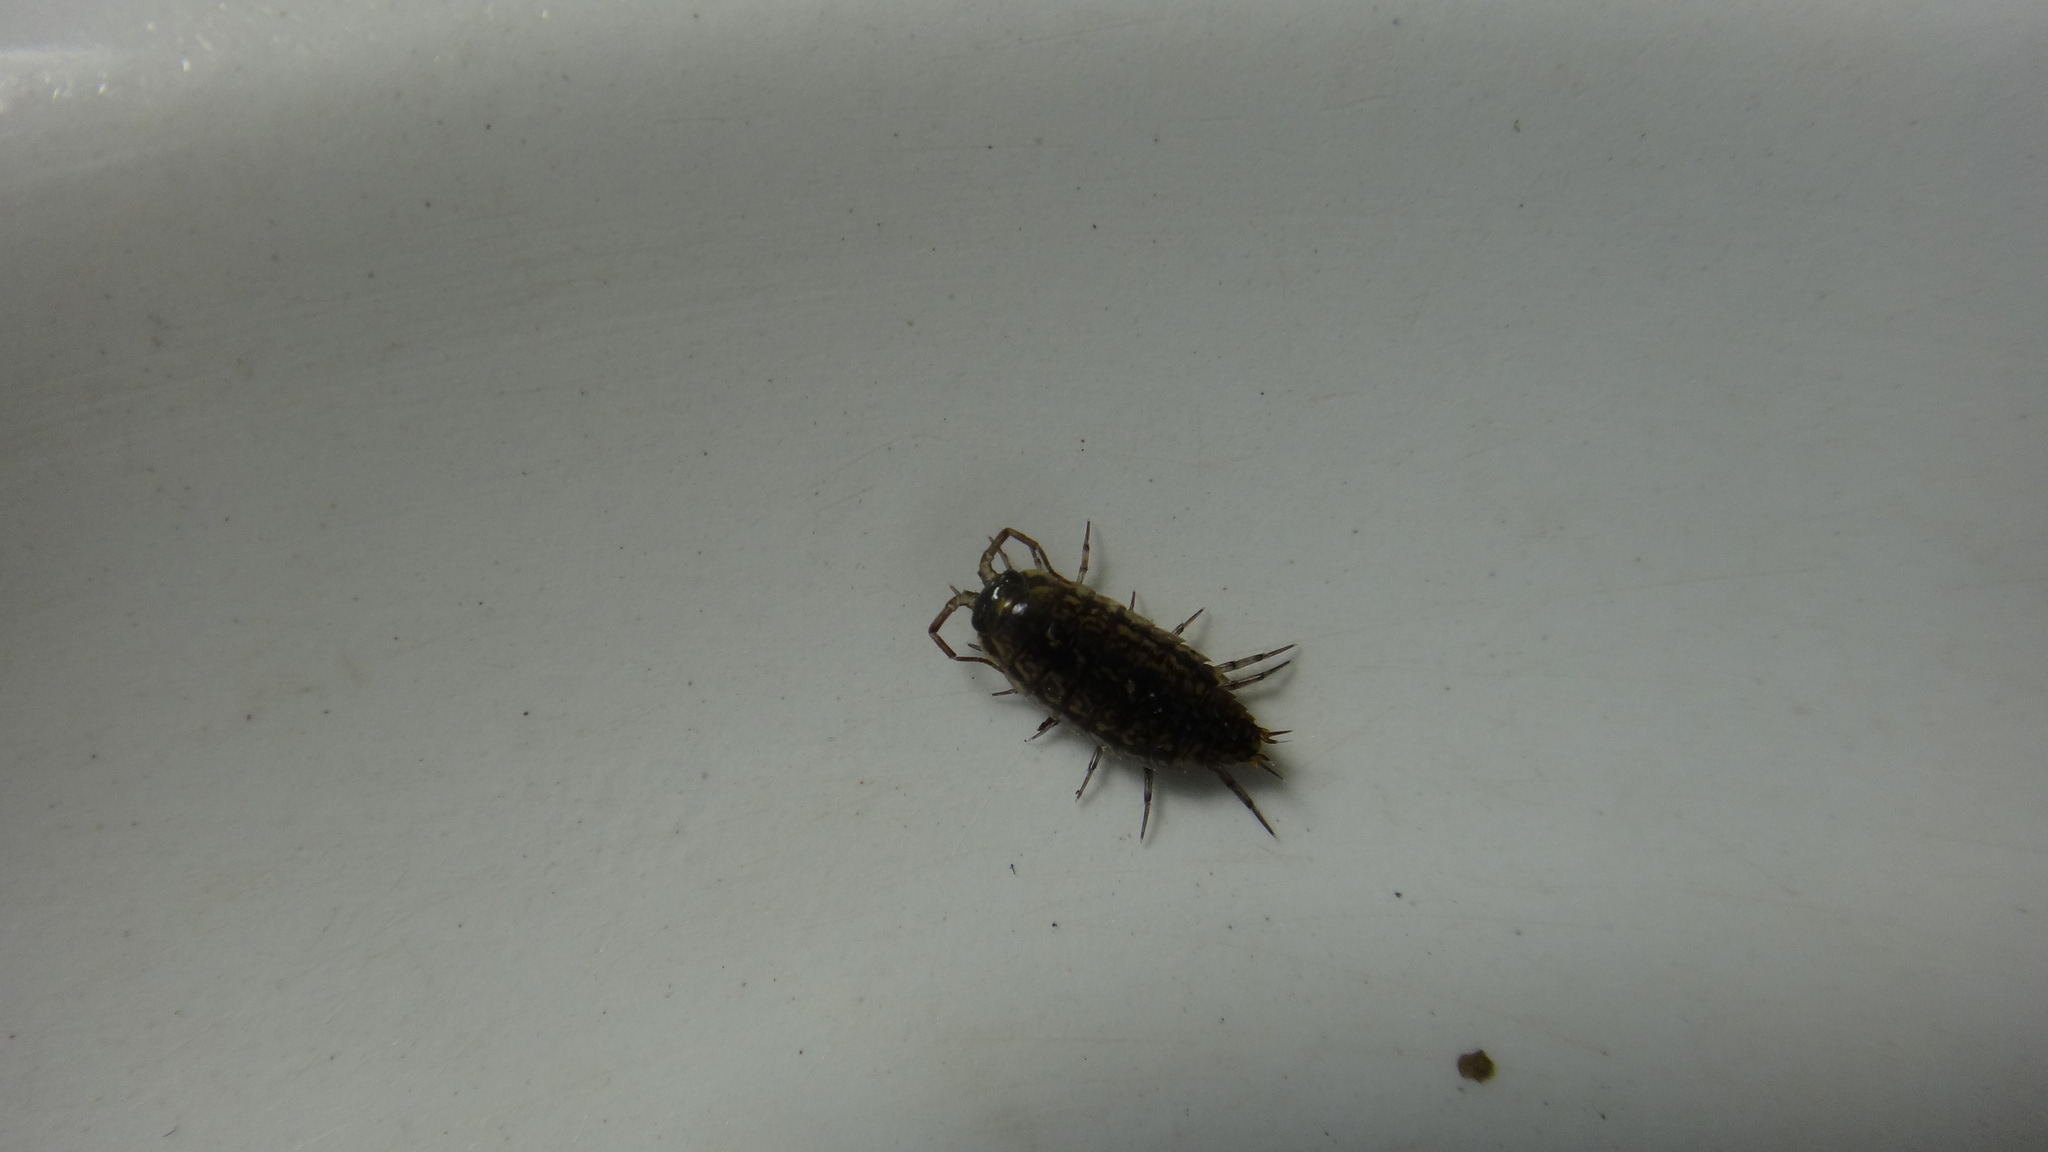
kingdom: Animalia
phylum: Arthropoda
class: Malacostraca
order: Isopoda
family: Ligiidae
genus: Ligidium
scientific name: Ligidium hypnorum
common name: Moss slater
